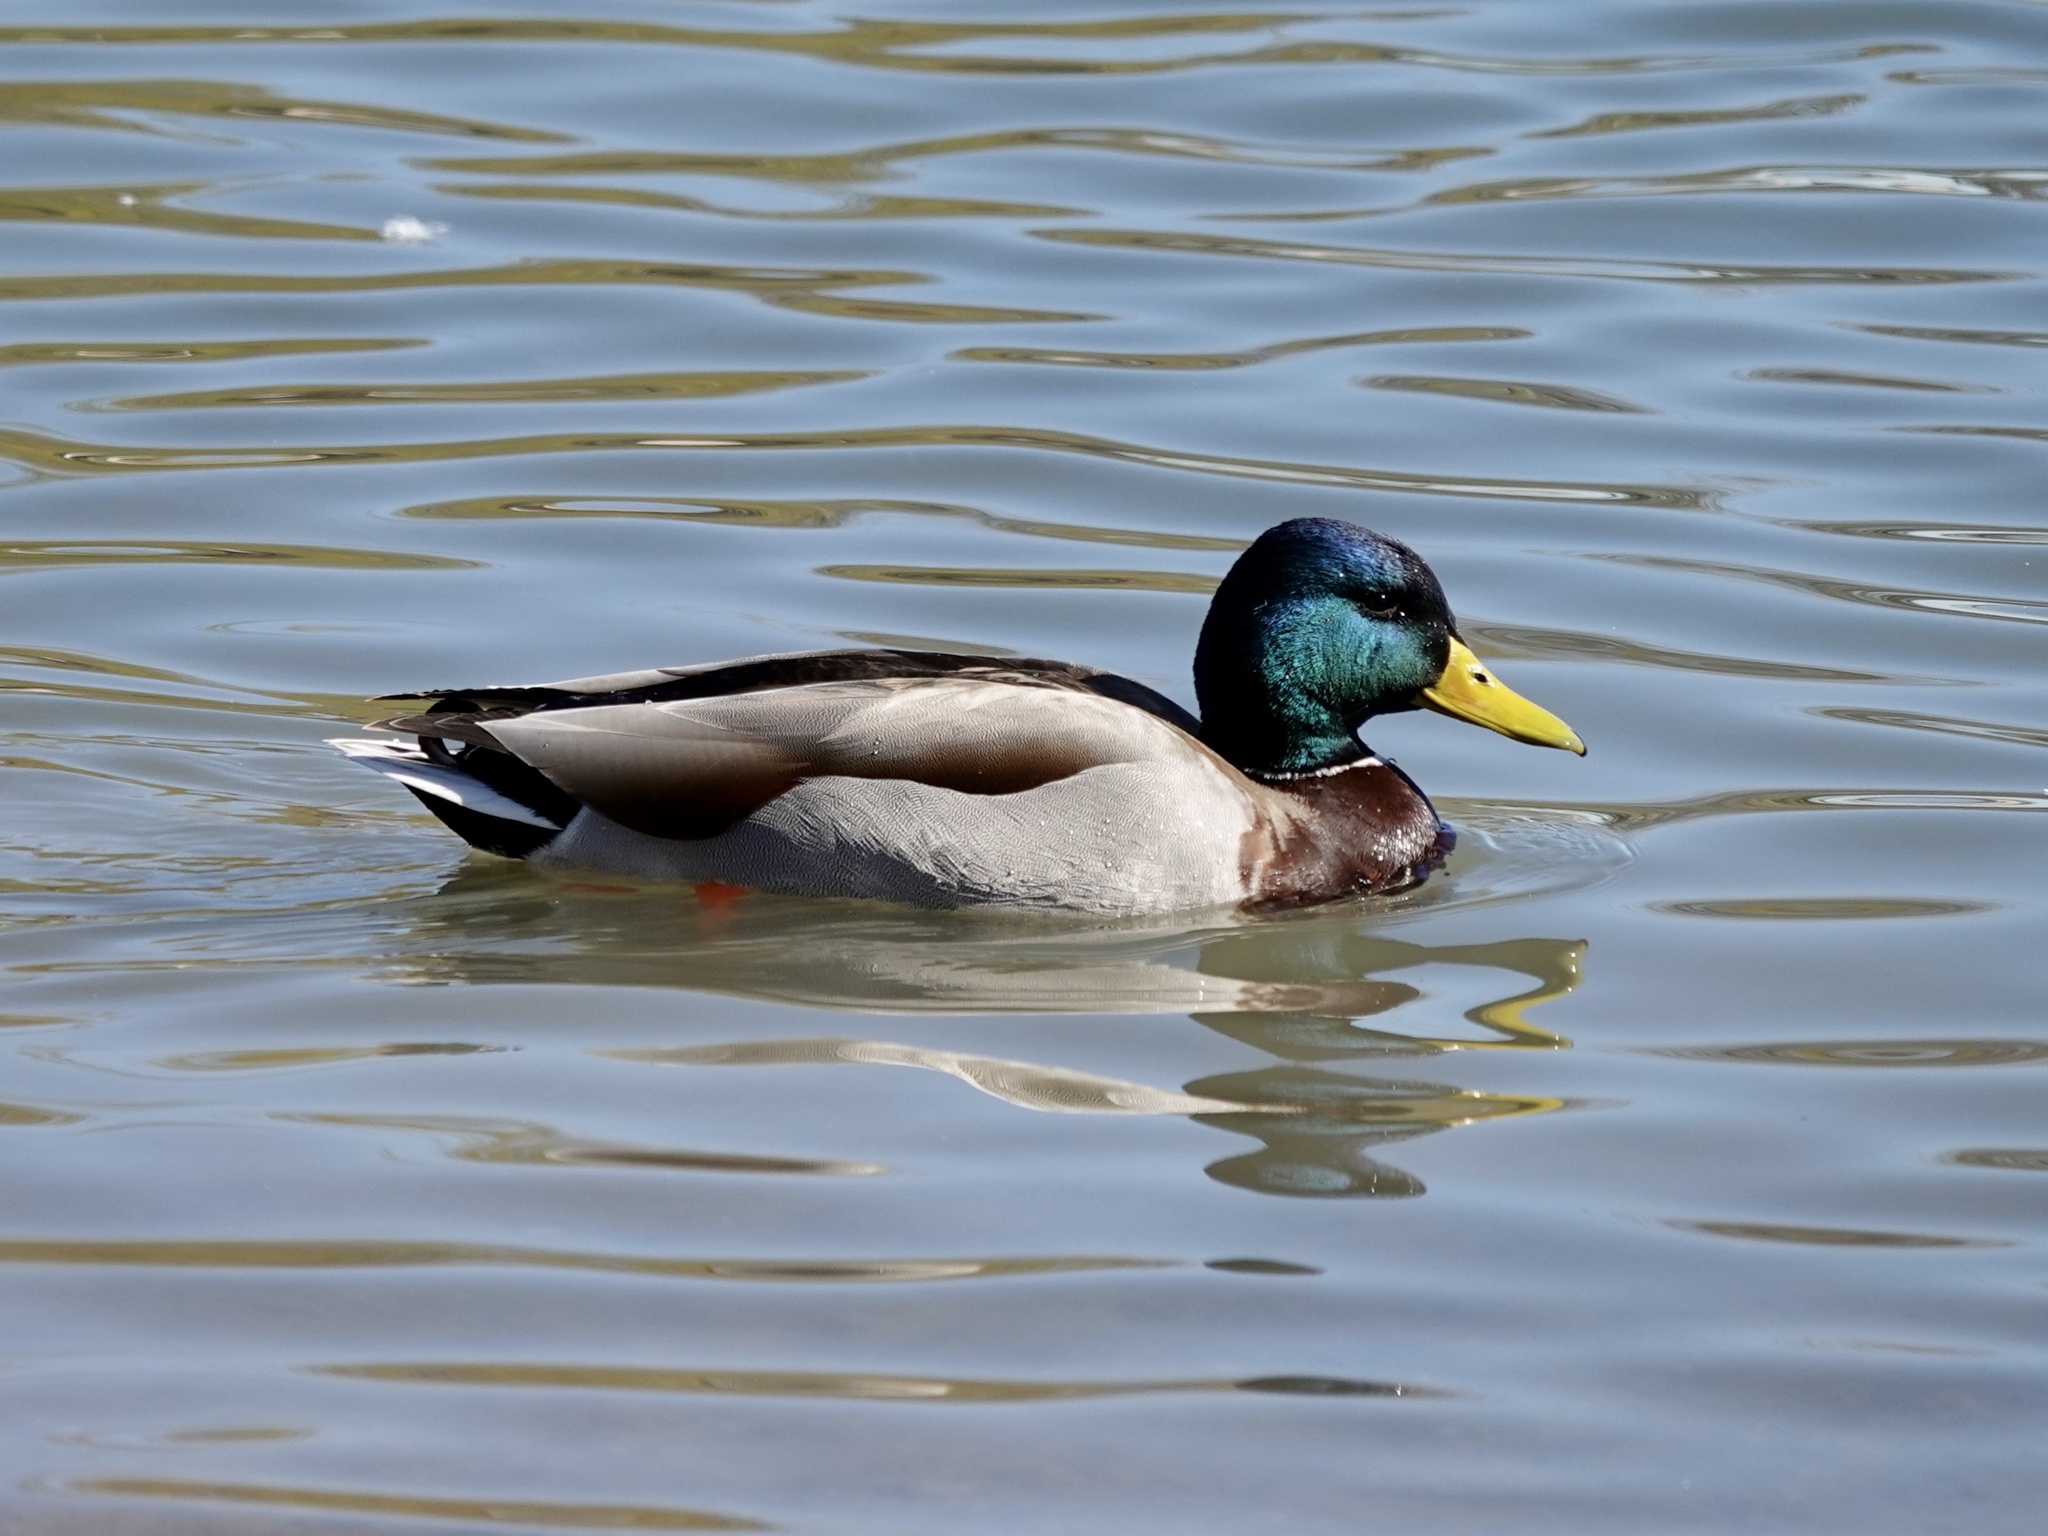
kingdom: Animalia
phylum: Chordata
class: Aves
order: Anseriformes
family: Anatidae
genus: Anas
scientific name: Anas platyrhynchos
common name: Mallard
